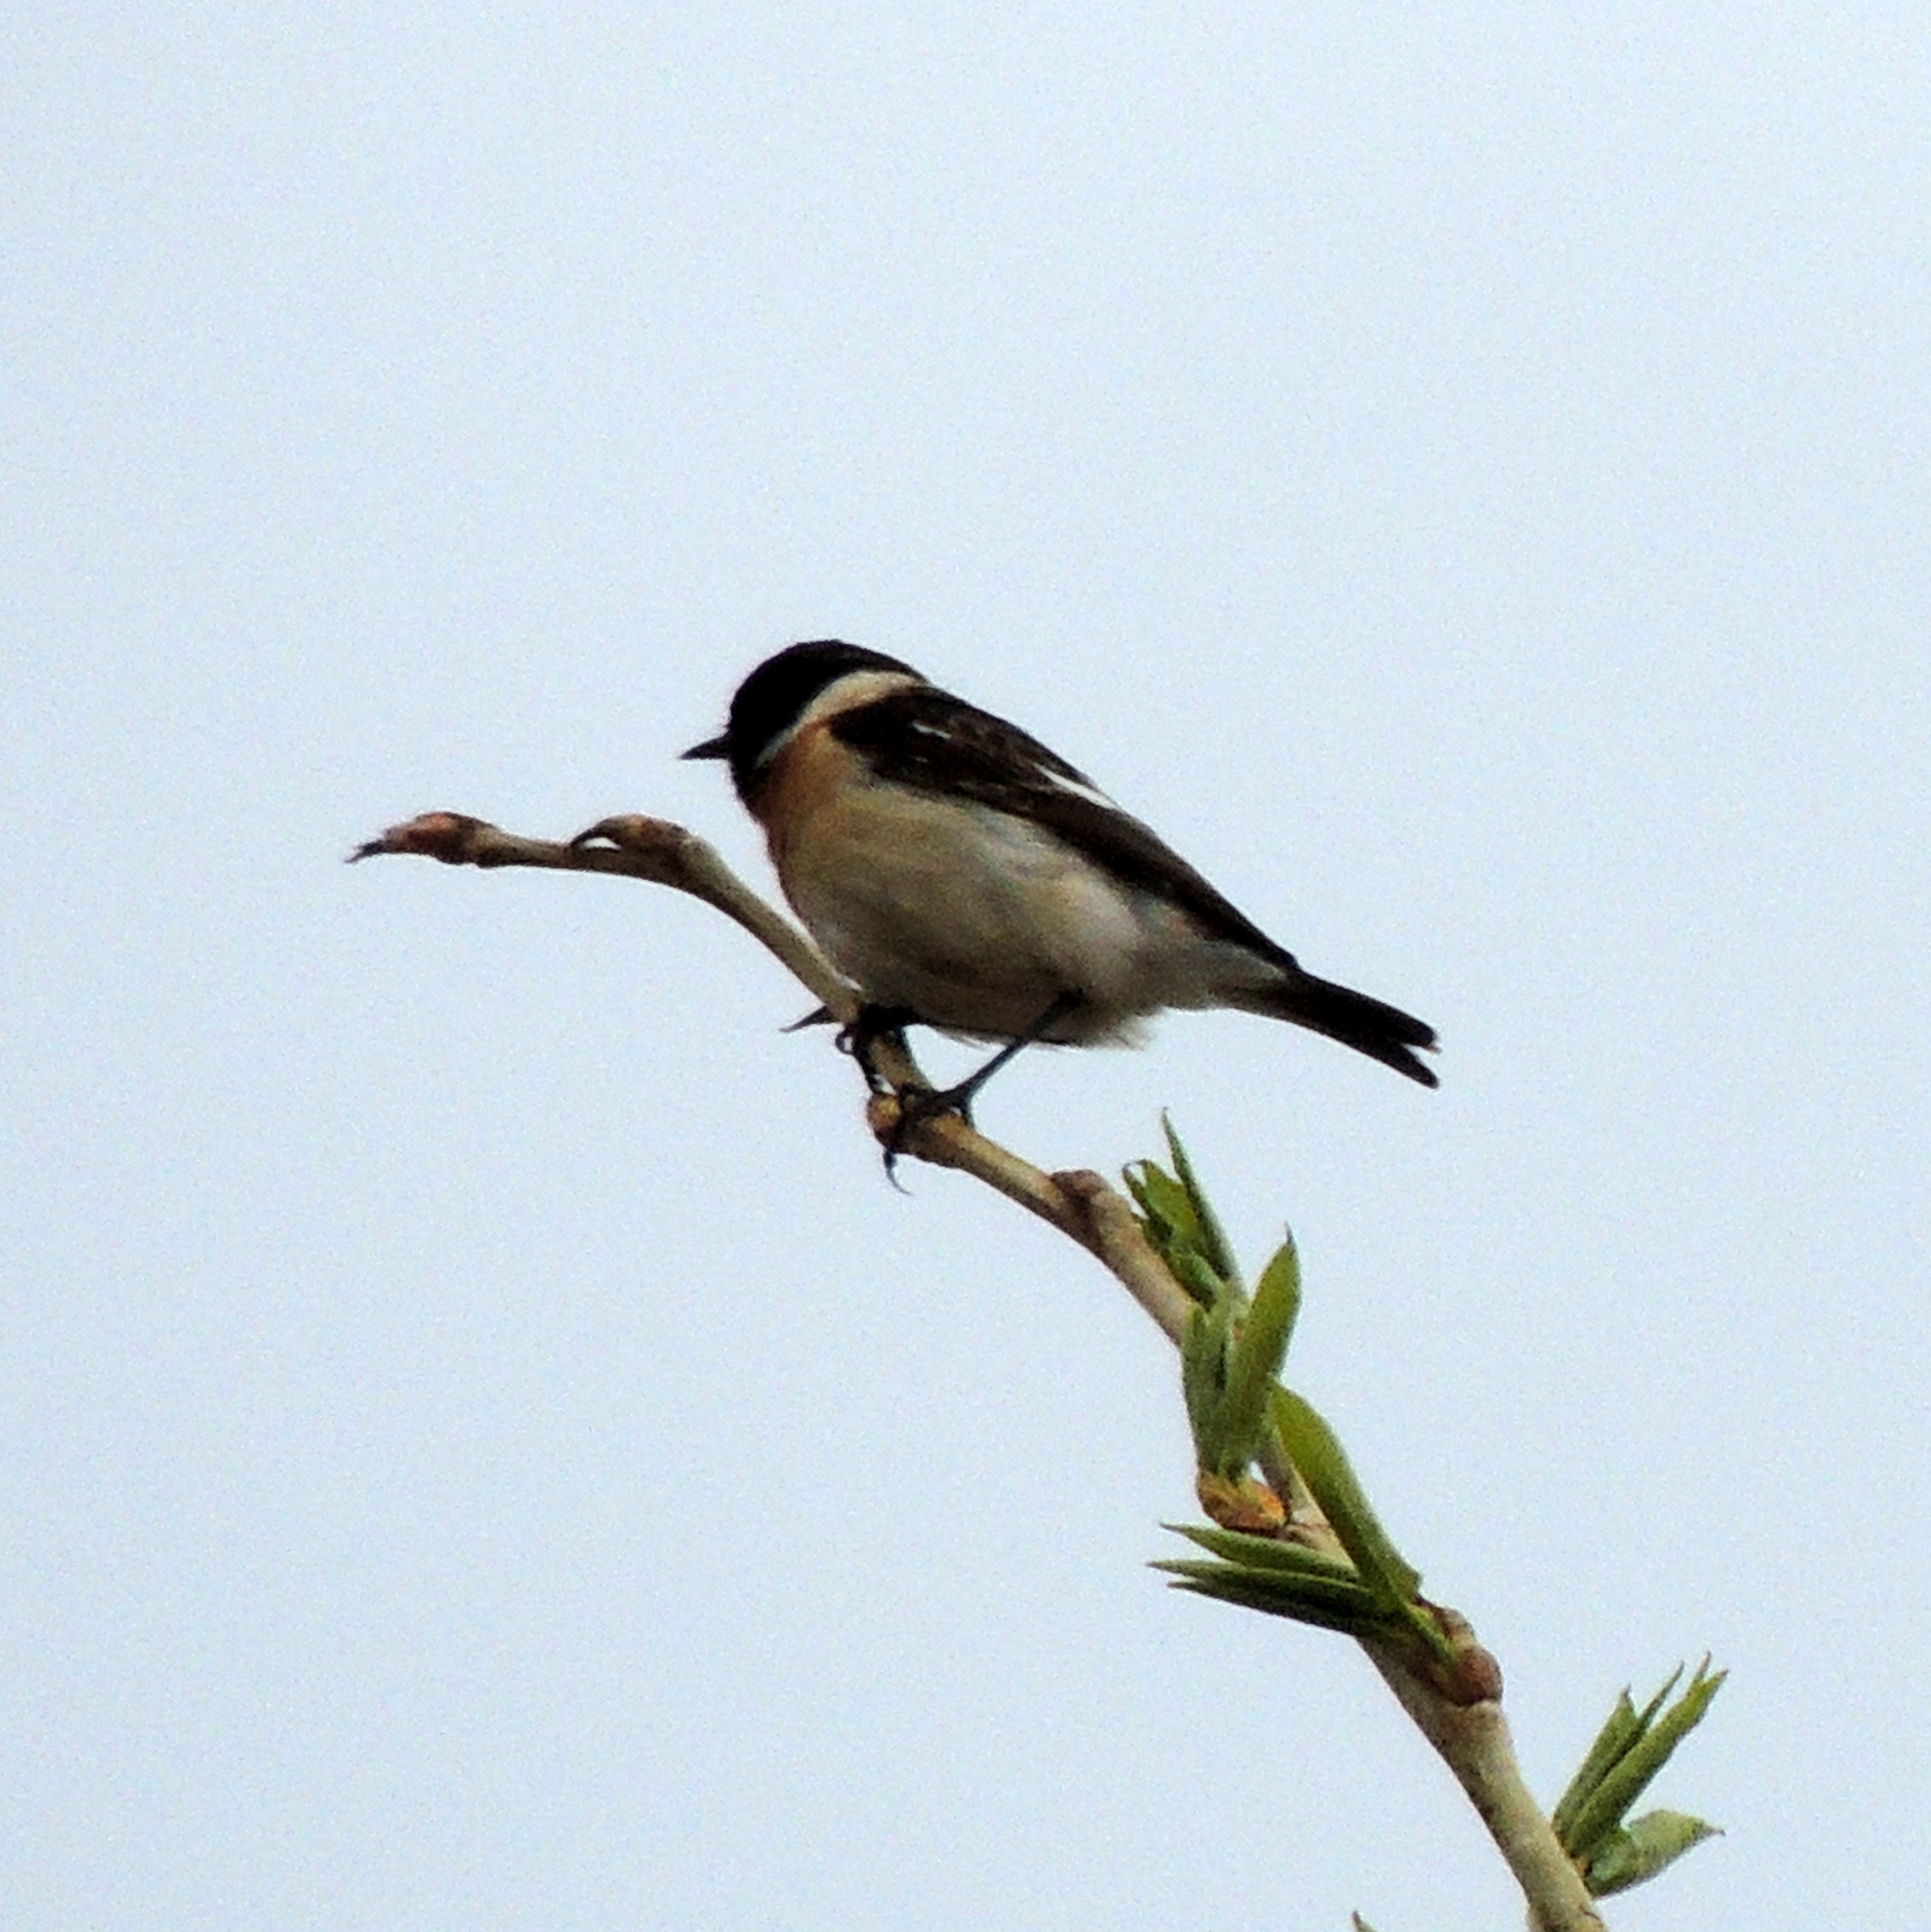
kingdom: Animalia
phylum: Chordata
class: Aves
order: Passeriformes
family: Muscicapidae
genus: Saxicola
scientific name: Saxicola maurus
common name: Siberian stonechat
